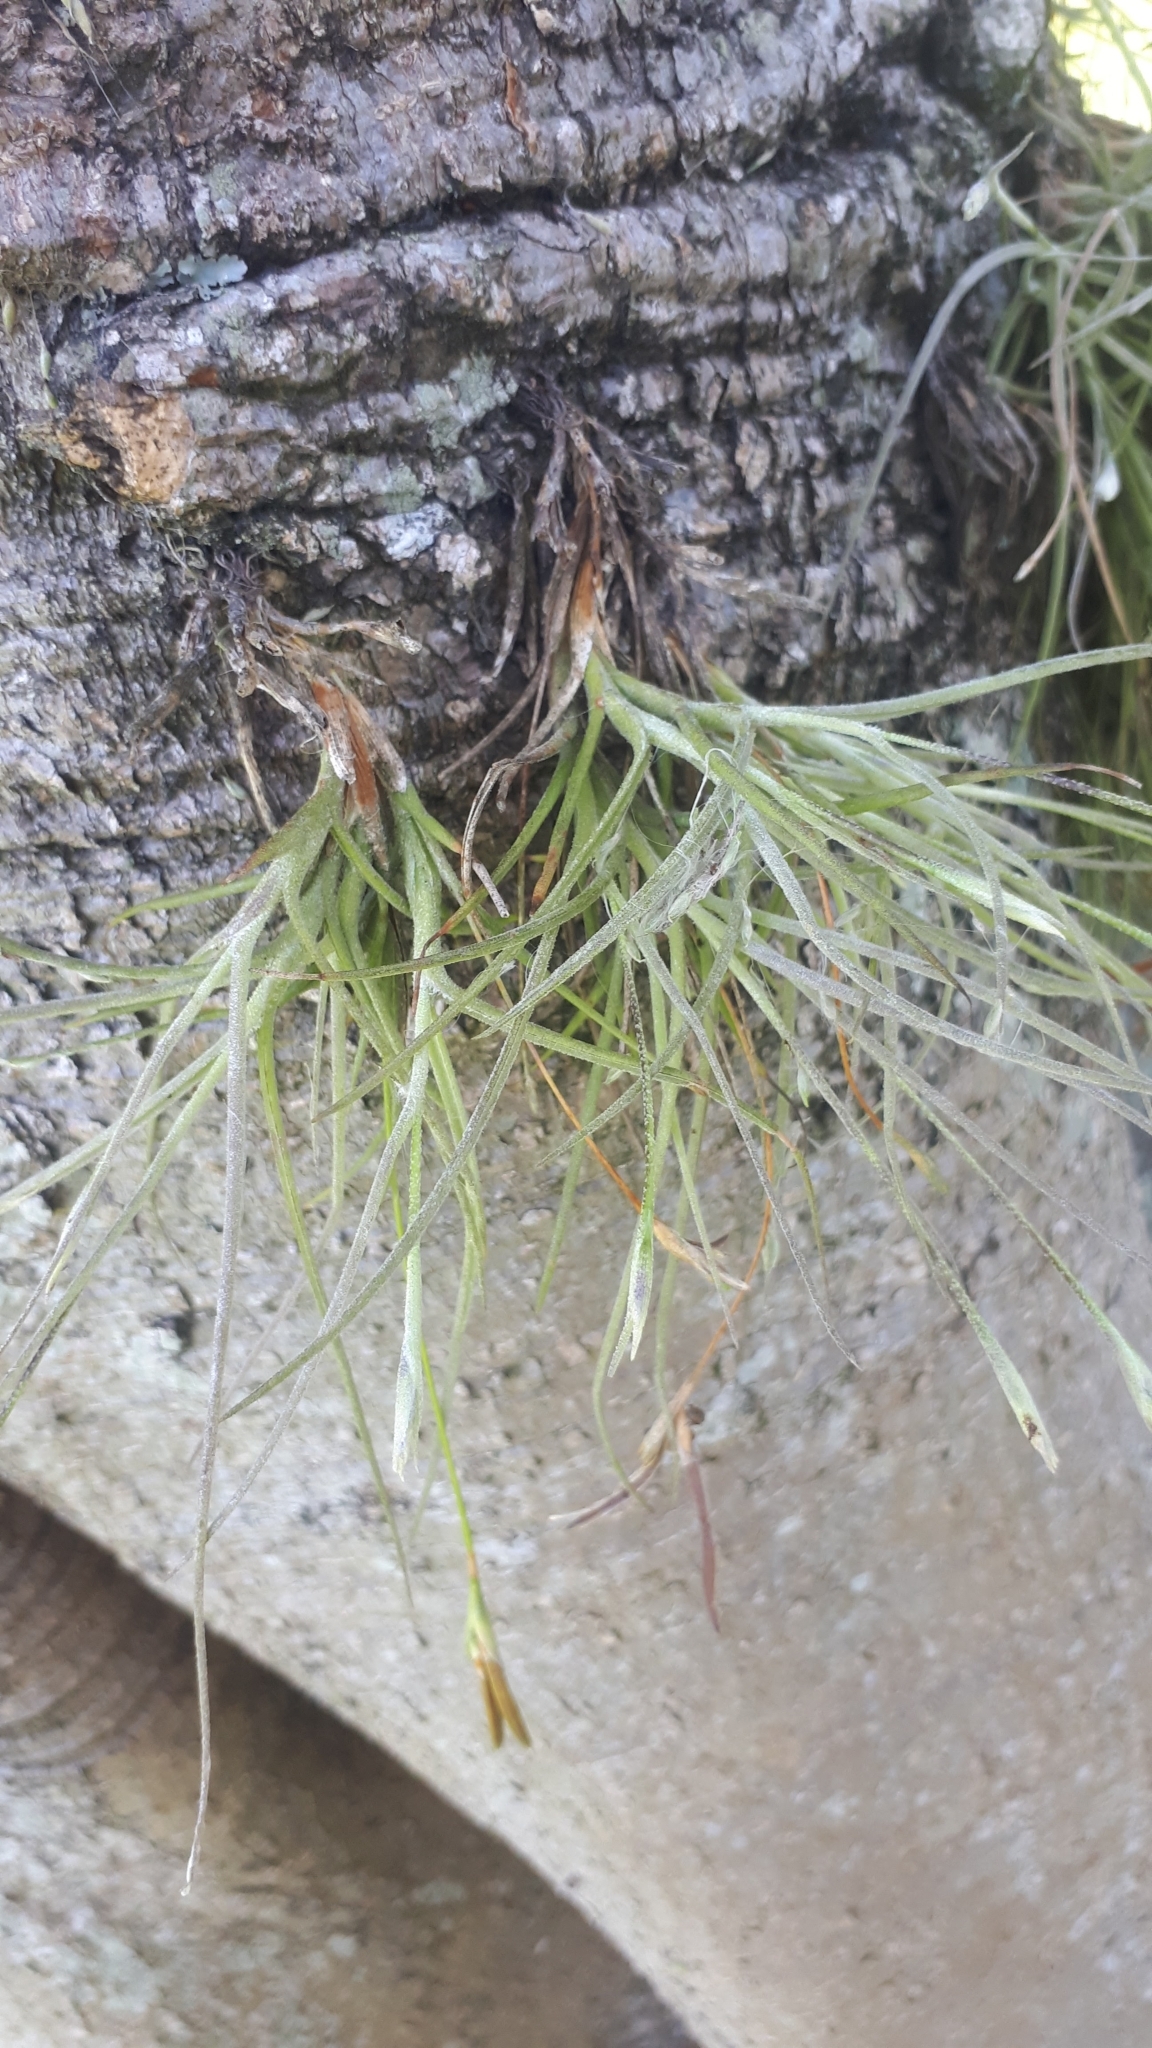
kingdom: Plantae
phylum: Tracheophyta
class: Liliopsida
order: Poales
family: Bromeliaceae
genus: Tillandsia
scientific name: Tillandsia recurvata
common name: Small ballmoss
